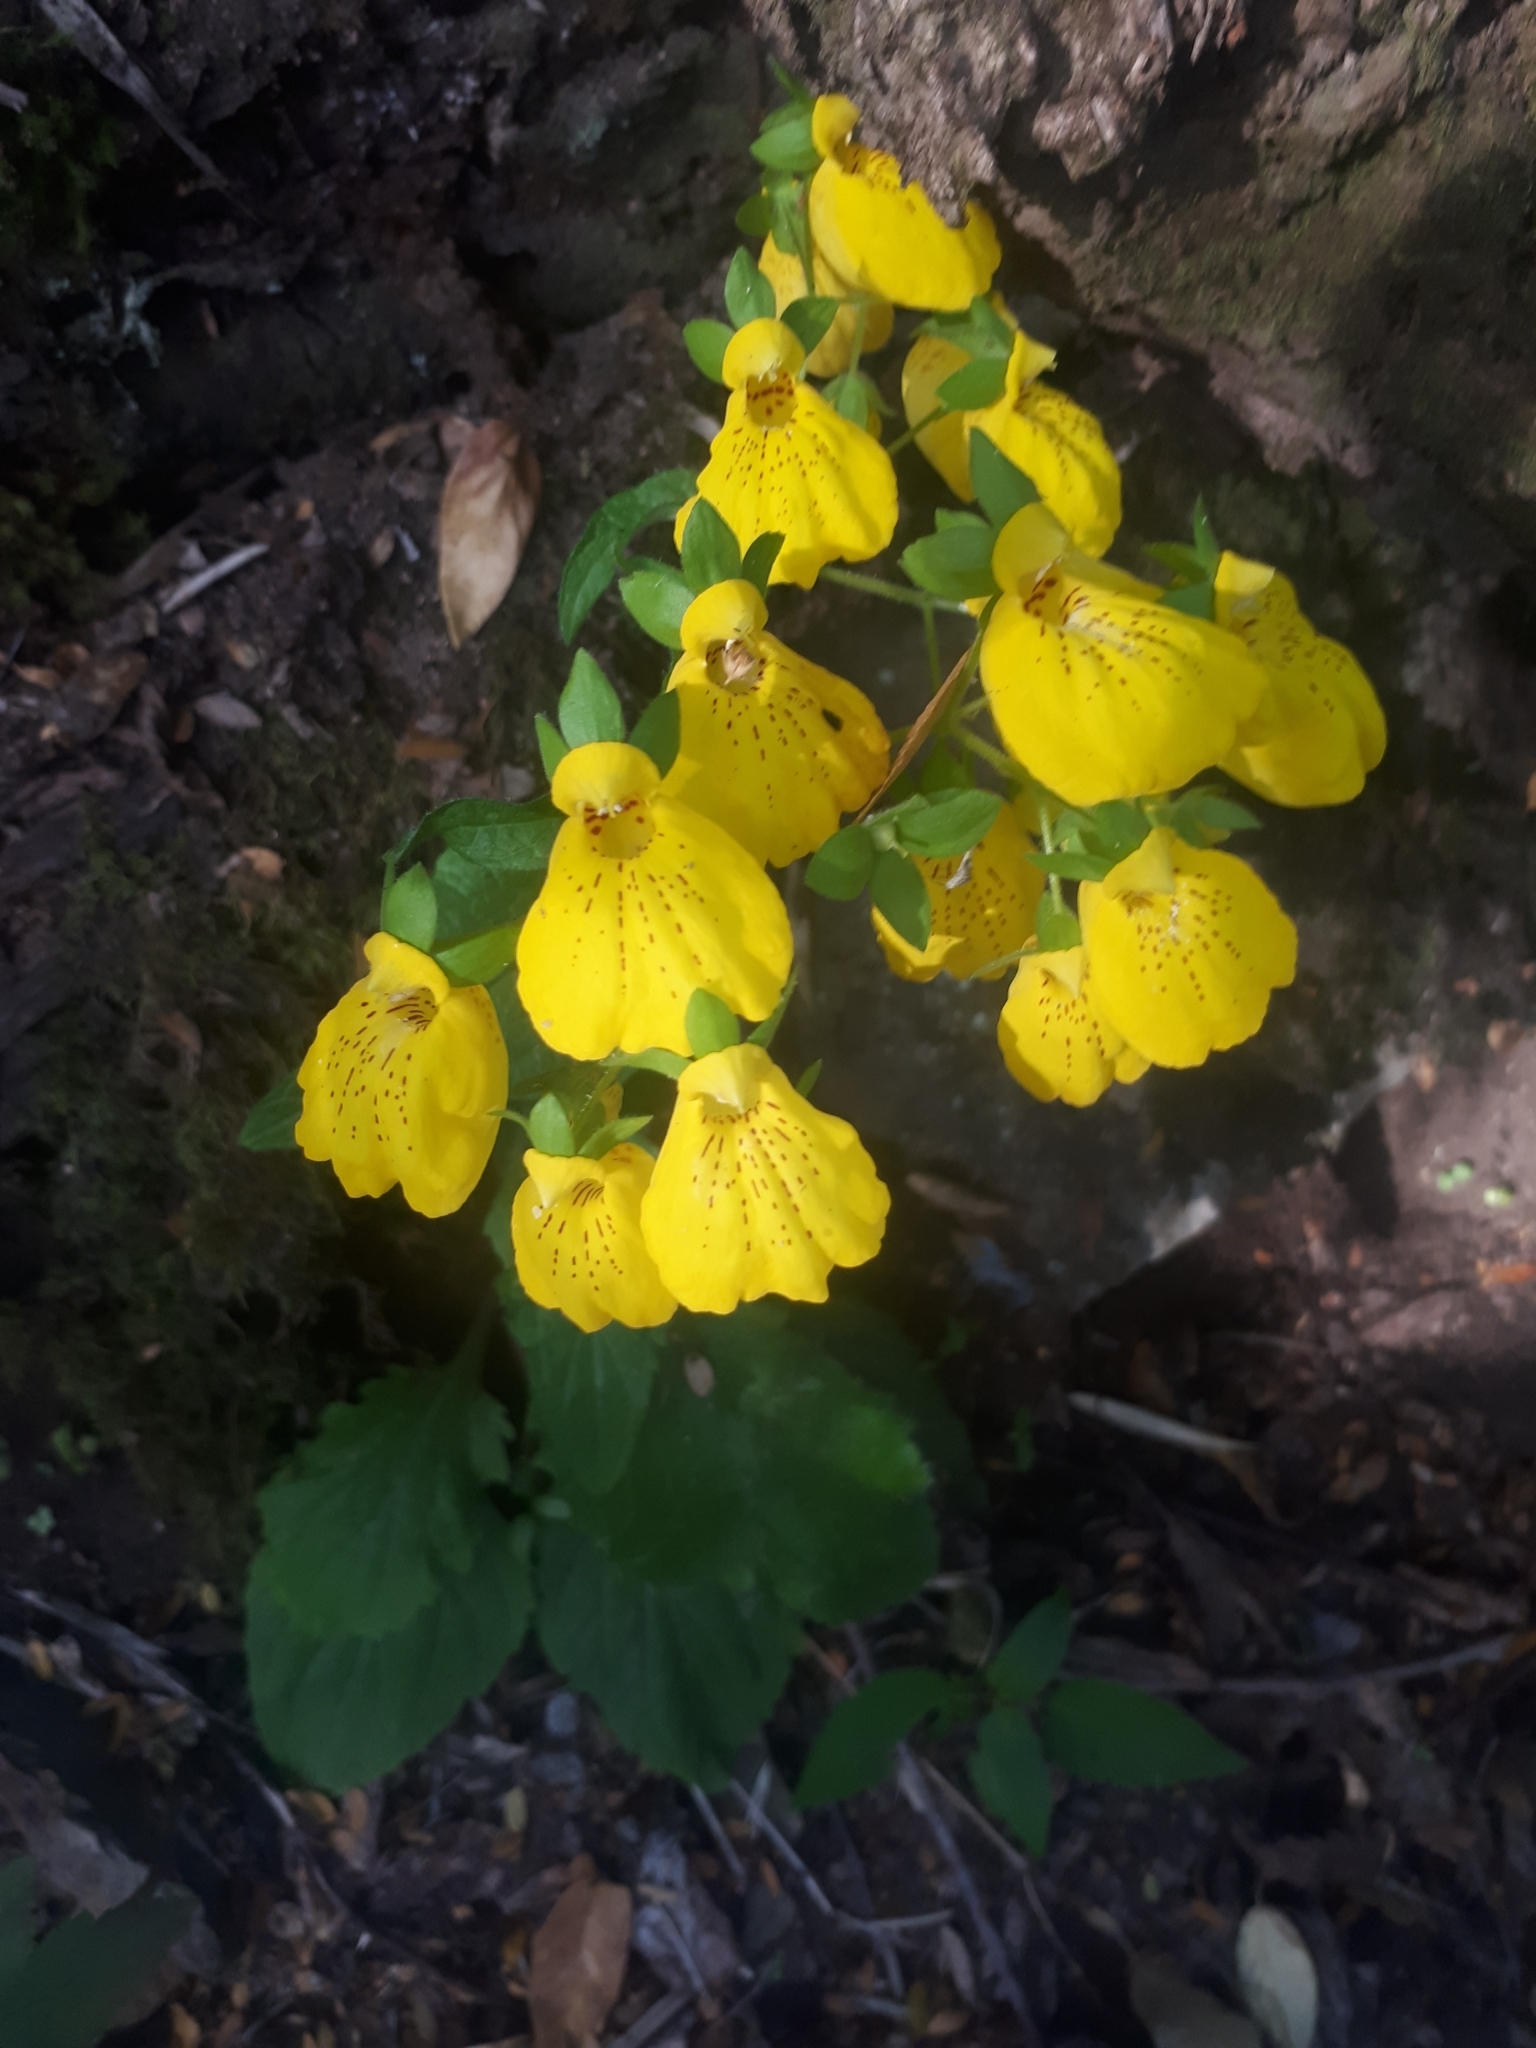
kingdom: Plantae
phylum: Tracheophyta
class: Magnoliopsida
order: Lamiales
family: Calceolariaceae
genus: Calceolaria
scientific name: Calceolaria crenatiflora
